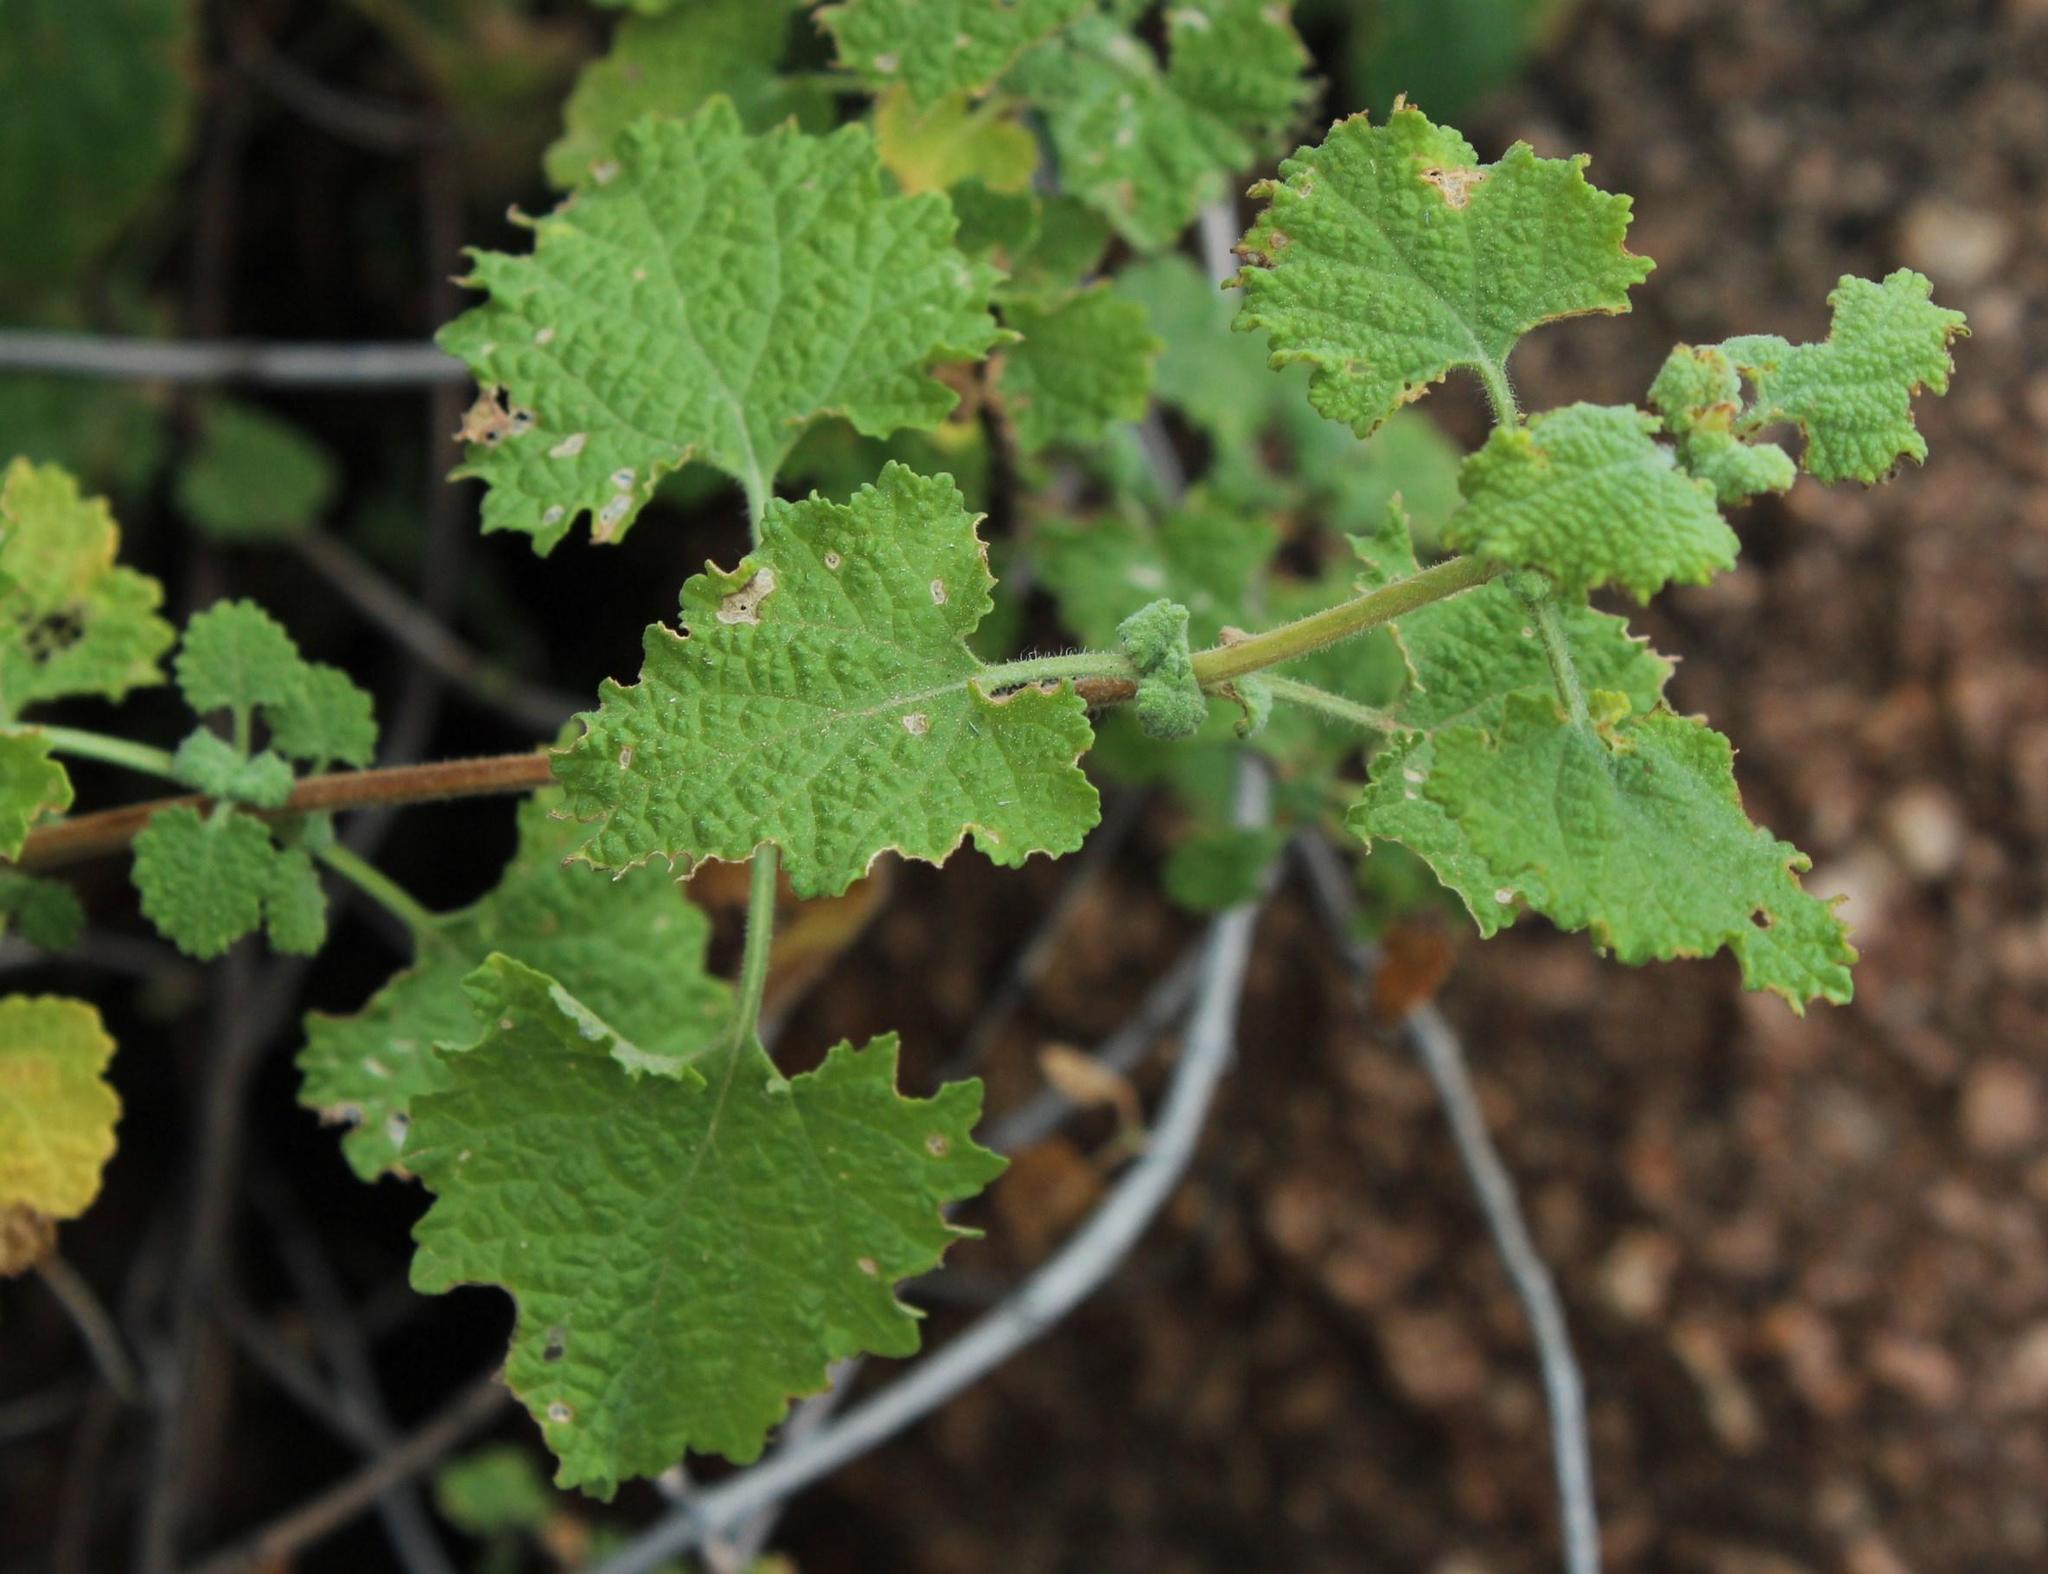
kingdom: Plantae
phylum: Tracheophyta
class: Magnoliopsida
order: Lamiales
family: Lamiaceae
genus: Salvia
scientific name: Salvia garipensis
